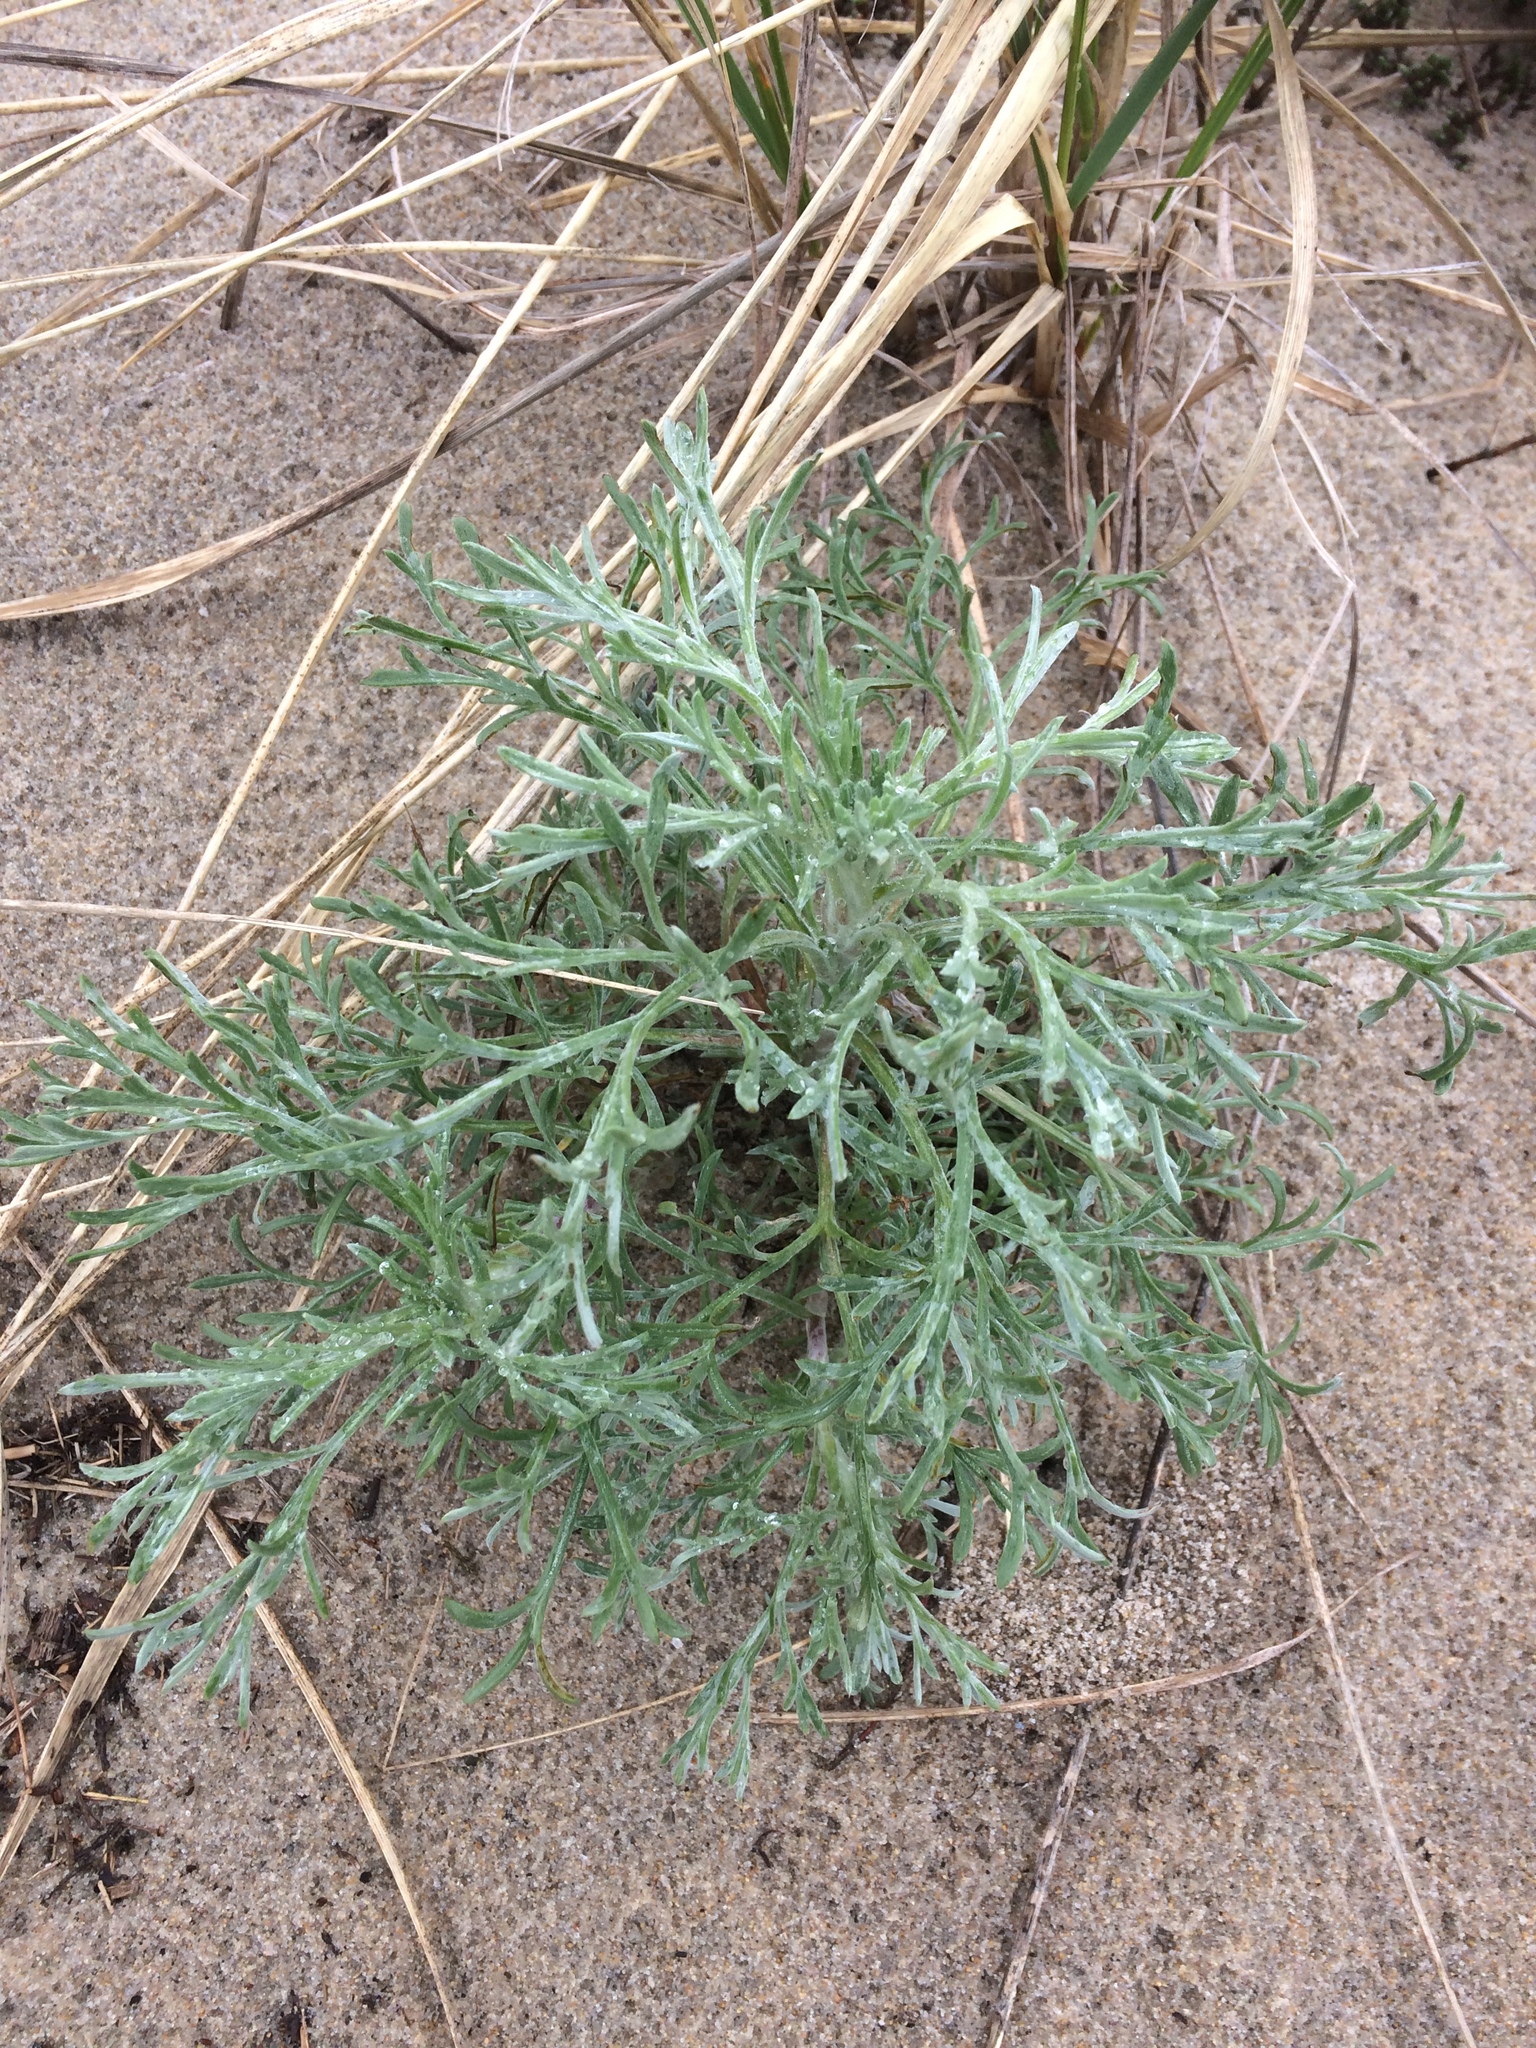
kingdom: Plantae
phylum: Tracheophyta
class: Magnoliopsida
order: Asterales
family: Asteraceae
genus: Artemisia
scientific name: Artemisia campestris
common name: Field wormwood
